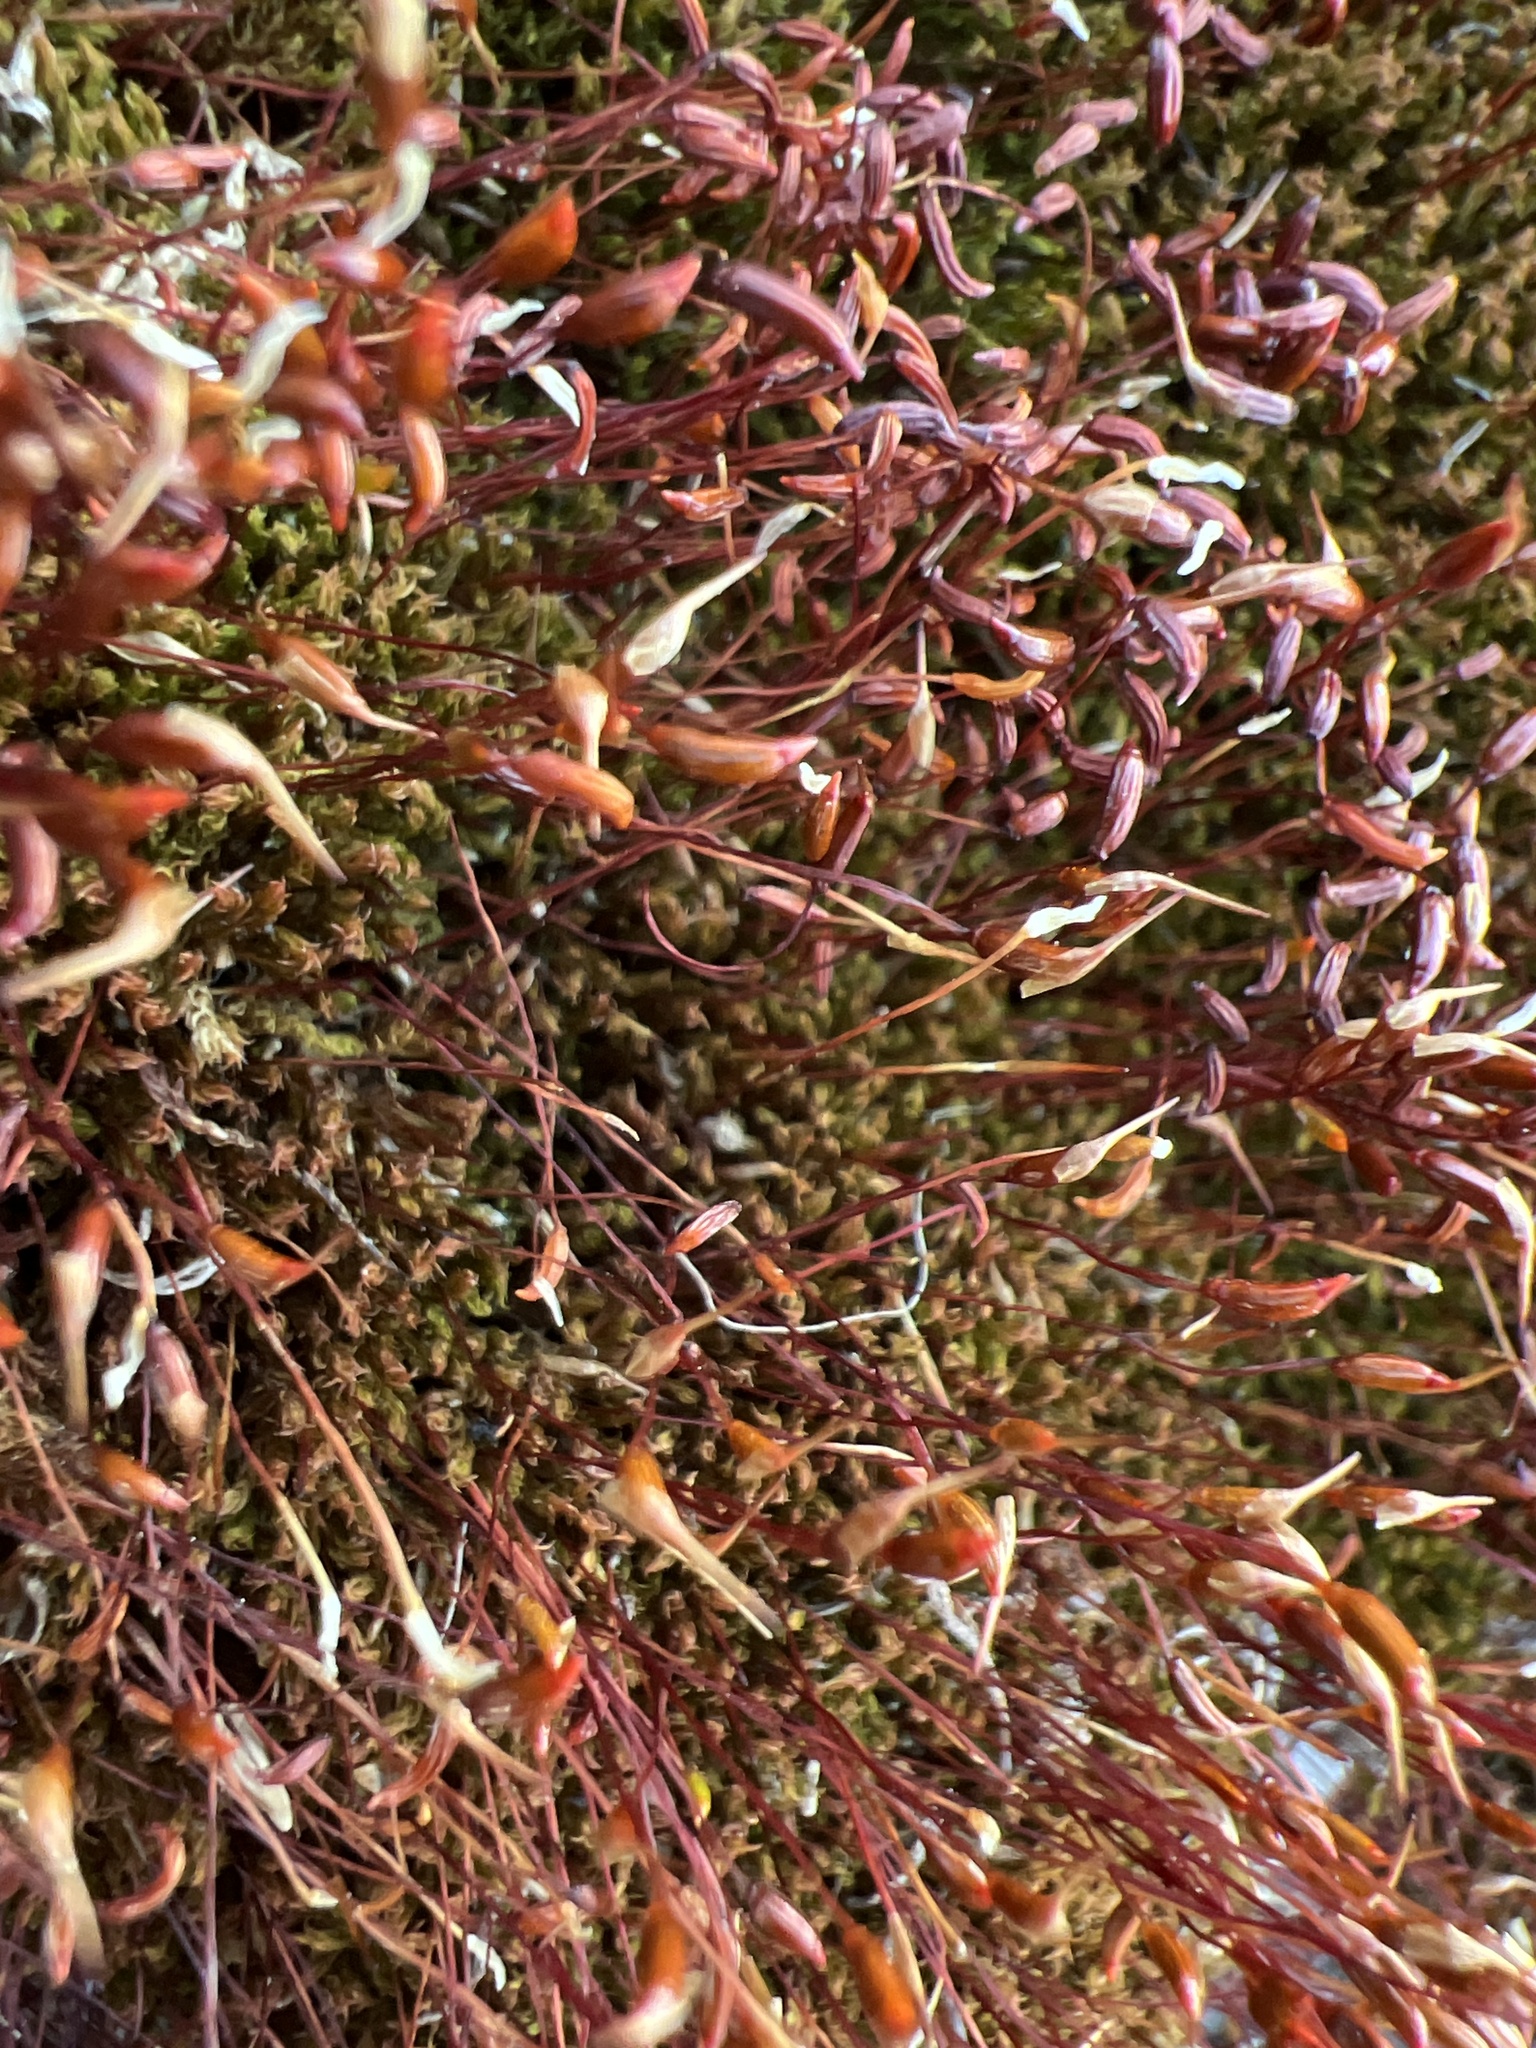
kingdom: Plantae
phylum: Bryophyta
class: Bryopsida
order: Dicranales
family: Ditrichaceae
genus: Ceratodon
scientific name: Ceratodon purpureus
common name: Redshank
